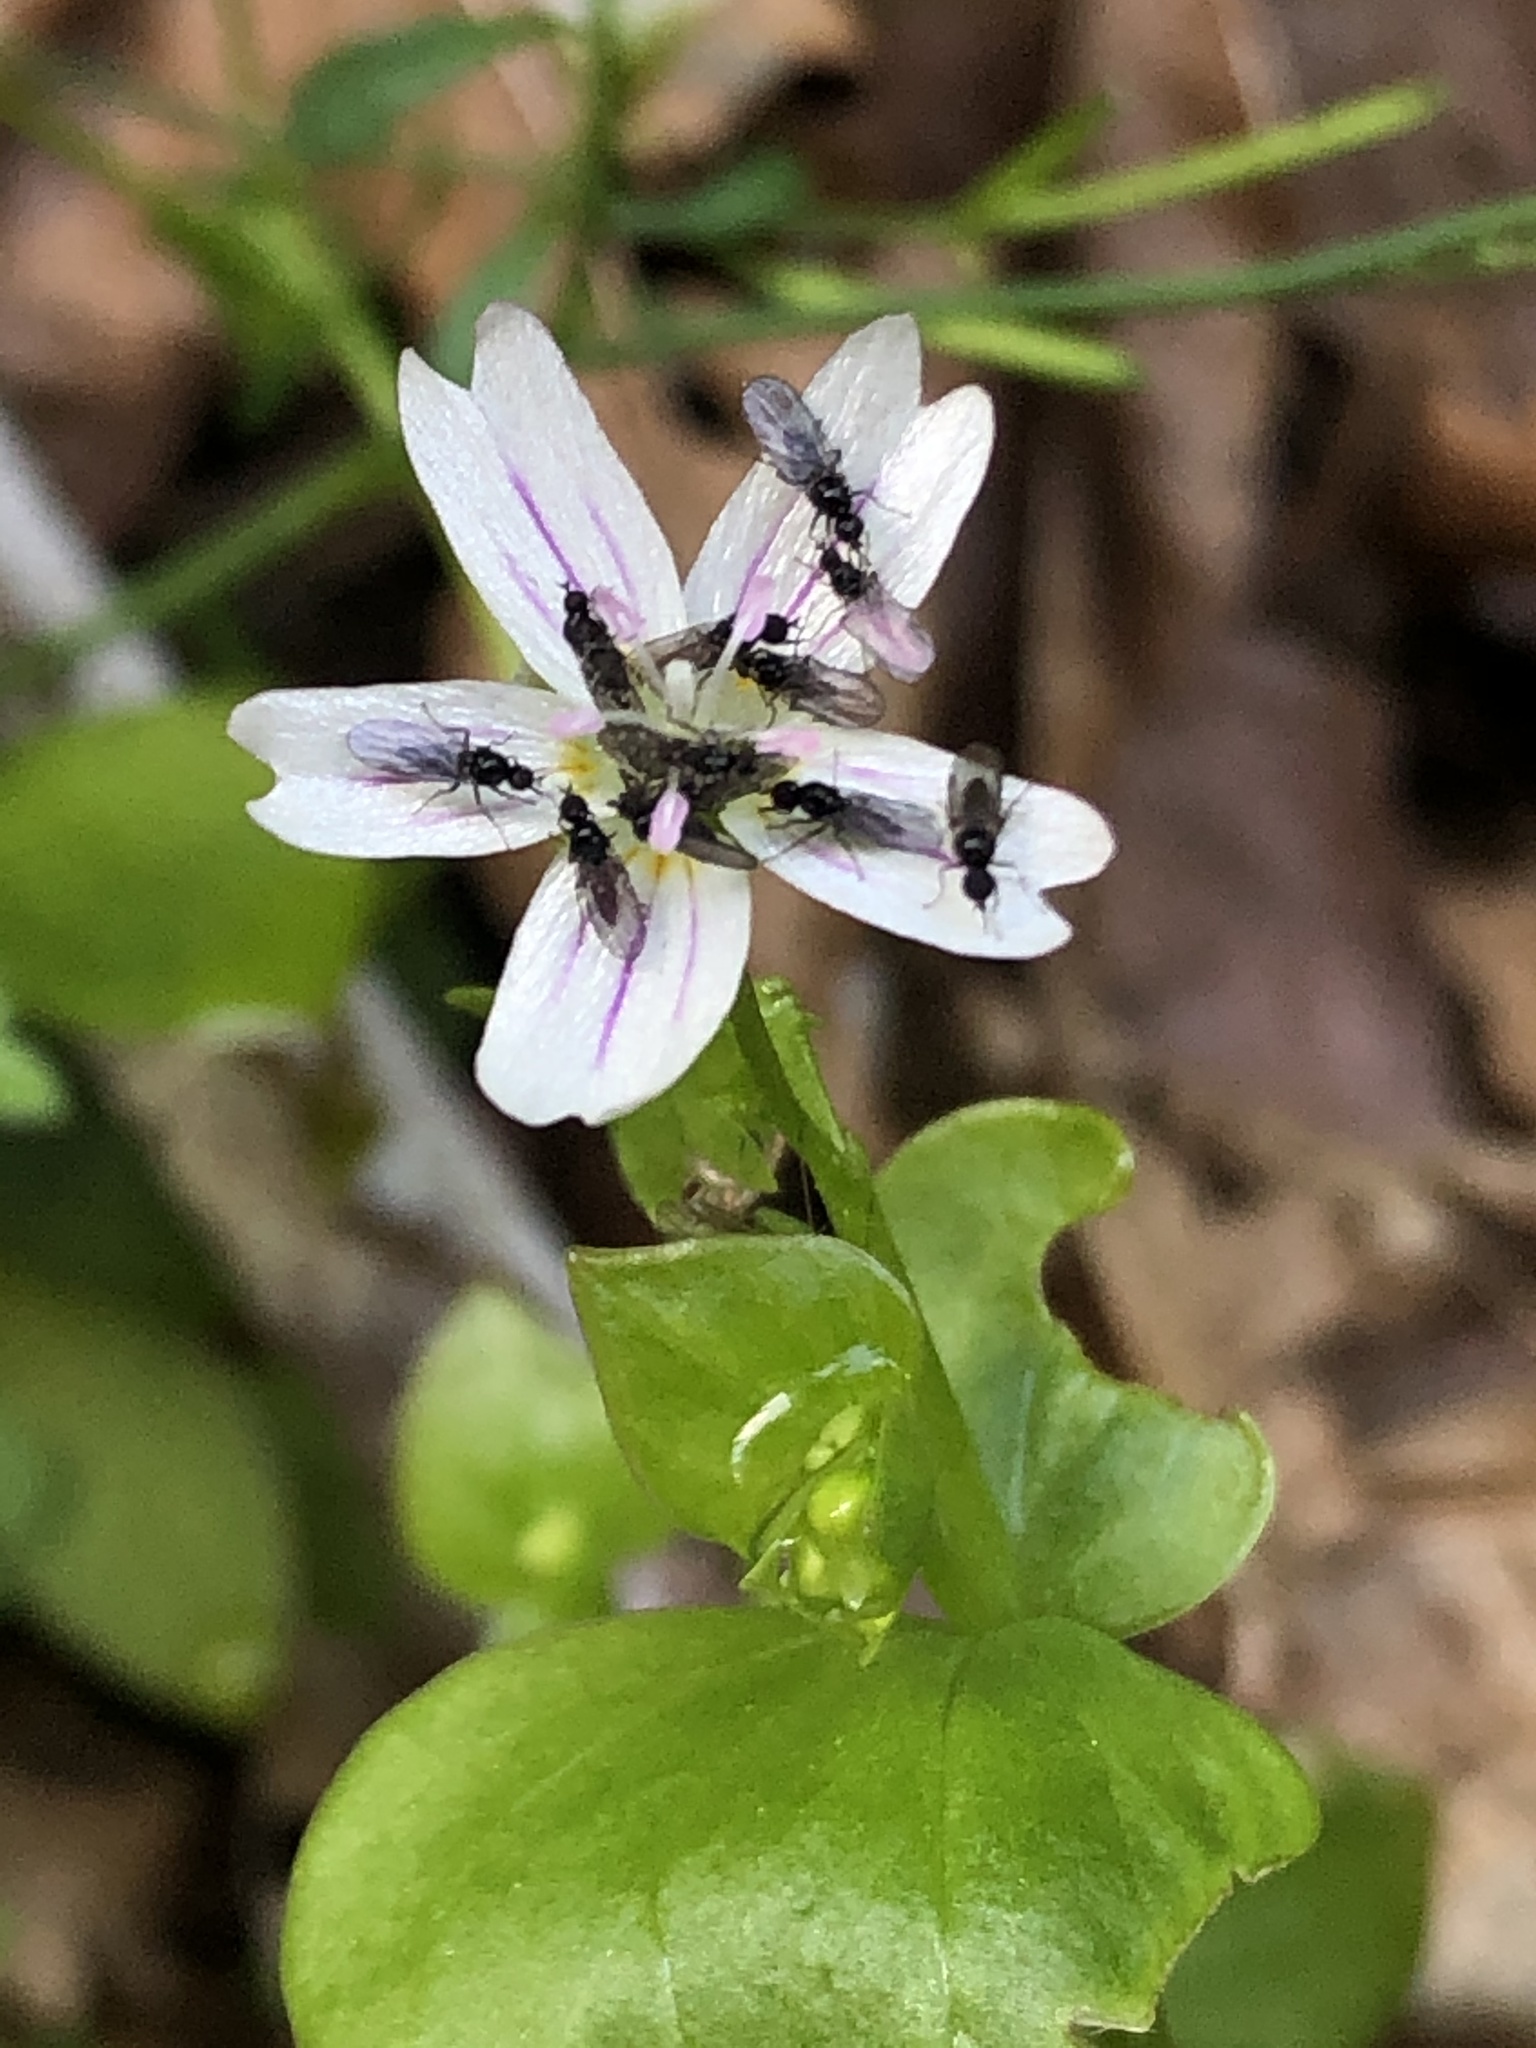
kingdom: Plantae
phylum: Tracheophyta
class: Magnoliopsida
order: Caryophyllales
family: Montiaceae
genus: Claytonia
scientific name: Claytonia sibirica
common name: Pink purslane
